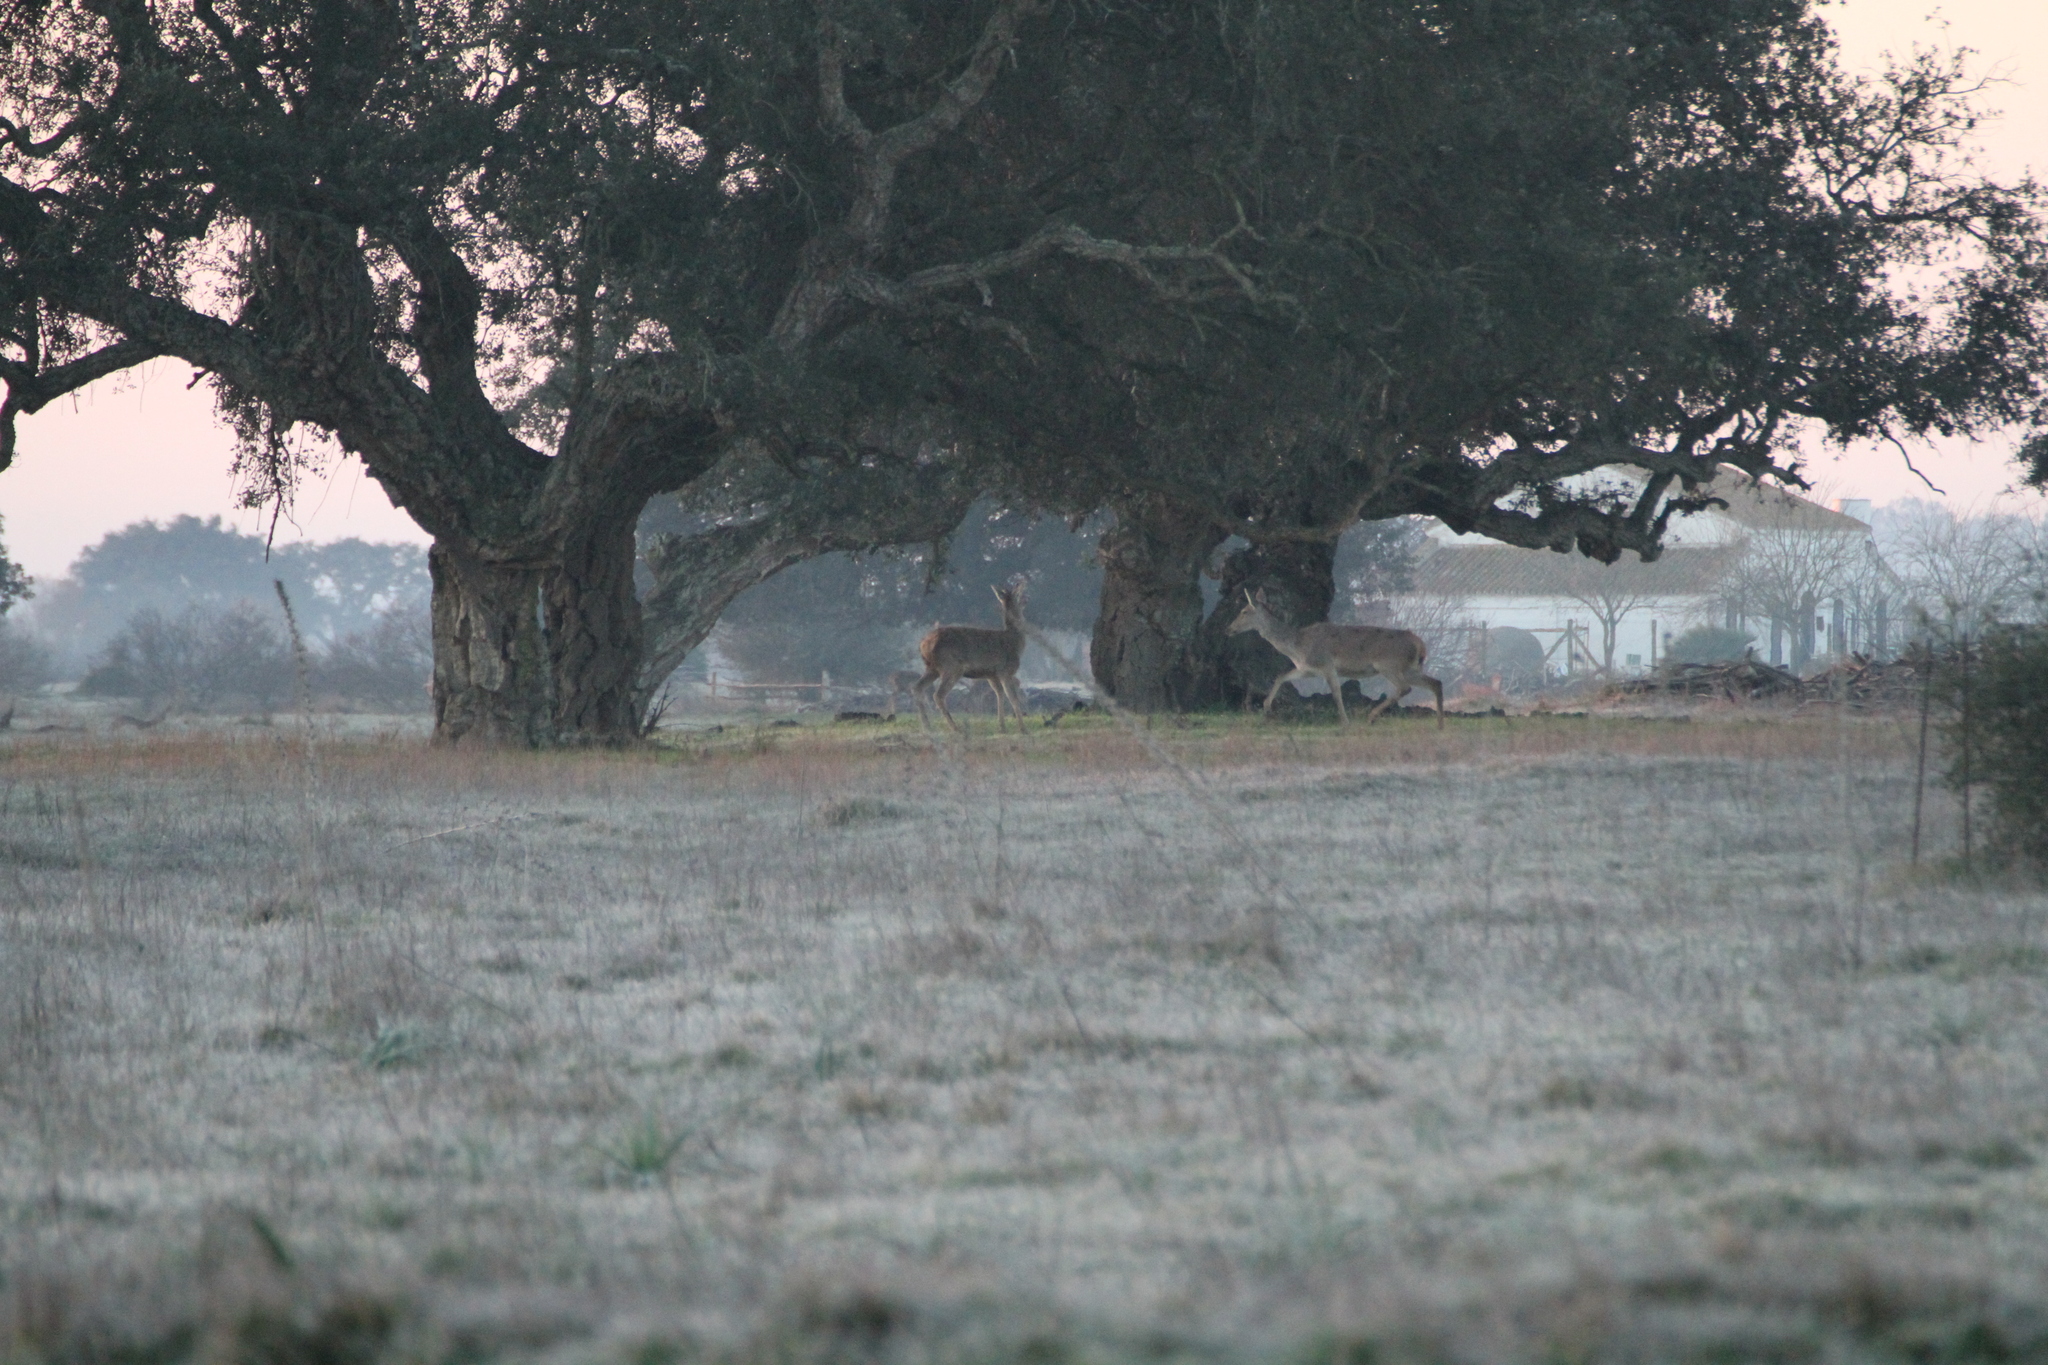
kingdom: Animalia
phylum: Chordata
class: Mammalia
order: Artiodactyla
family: Cervidae
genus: Cervus
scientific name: Cervus elaphus
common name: Red deer
